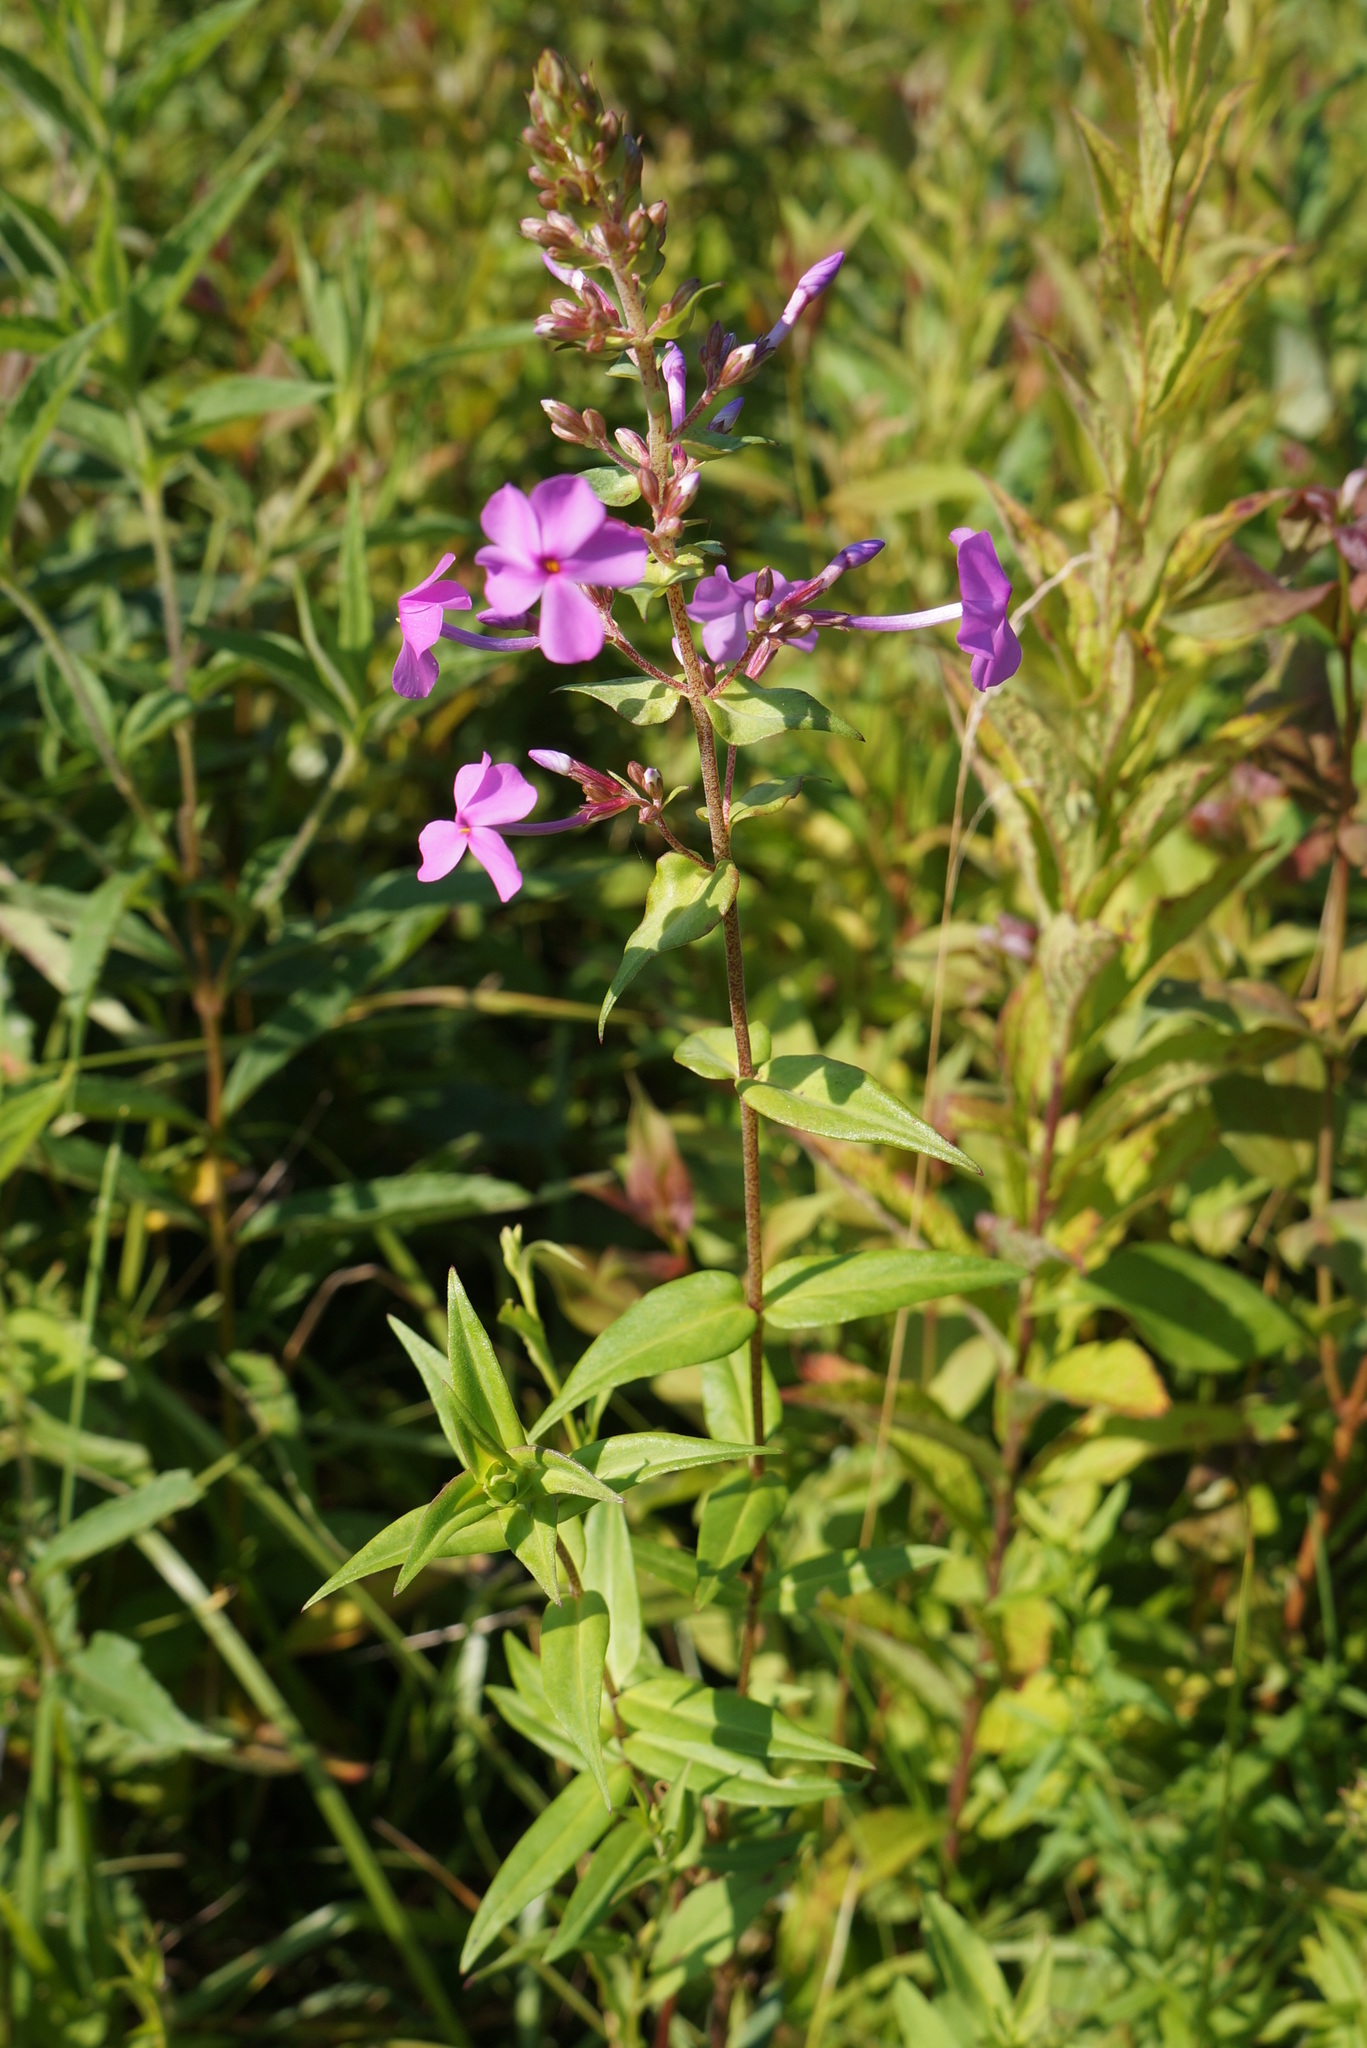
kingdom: Plantae
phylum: Tracheophyta
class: Magnoliopsida
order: Ericales
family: Polemoniaceae
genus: Phlox
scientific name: Phlox maculata
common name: Meadow phlox
